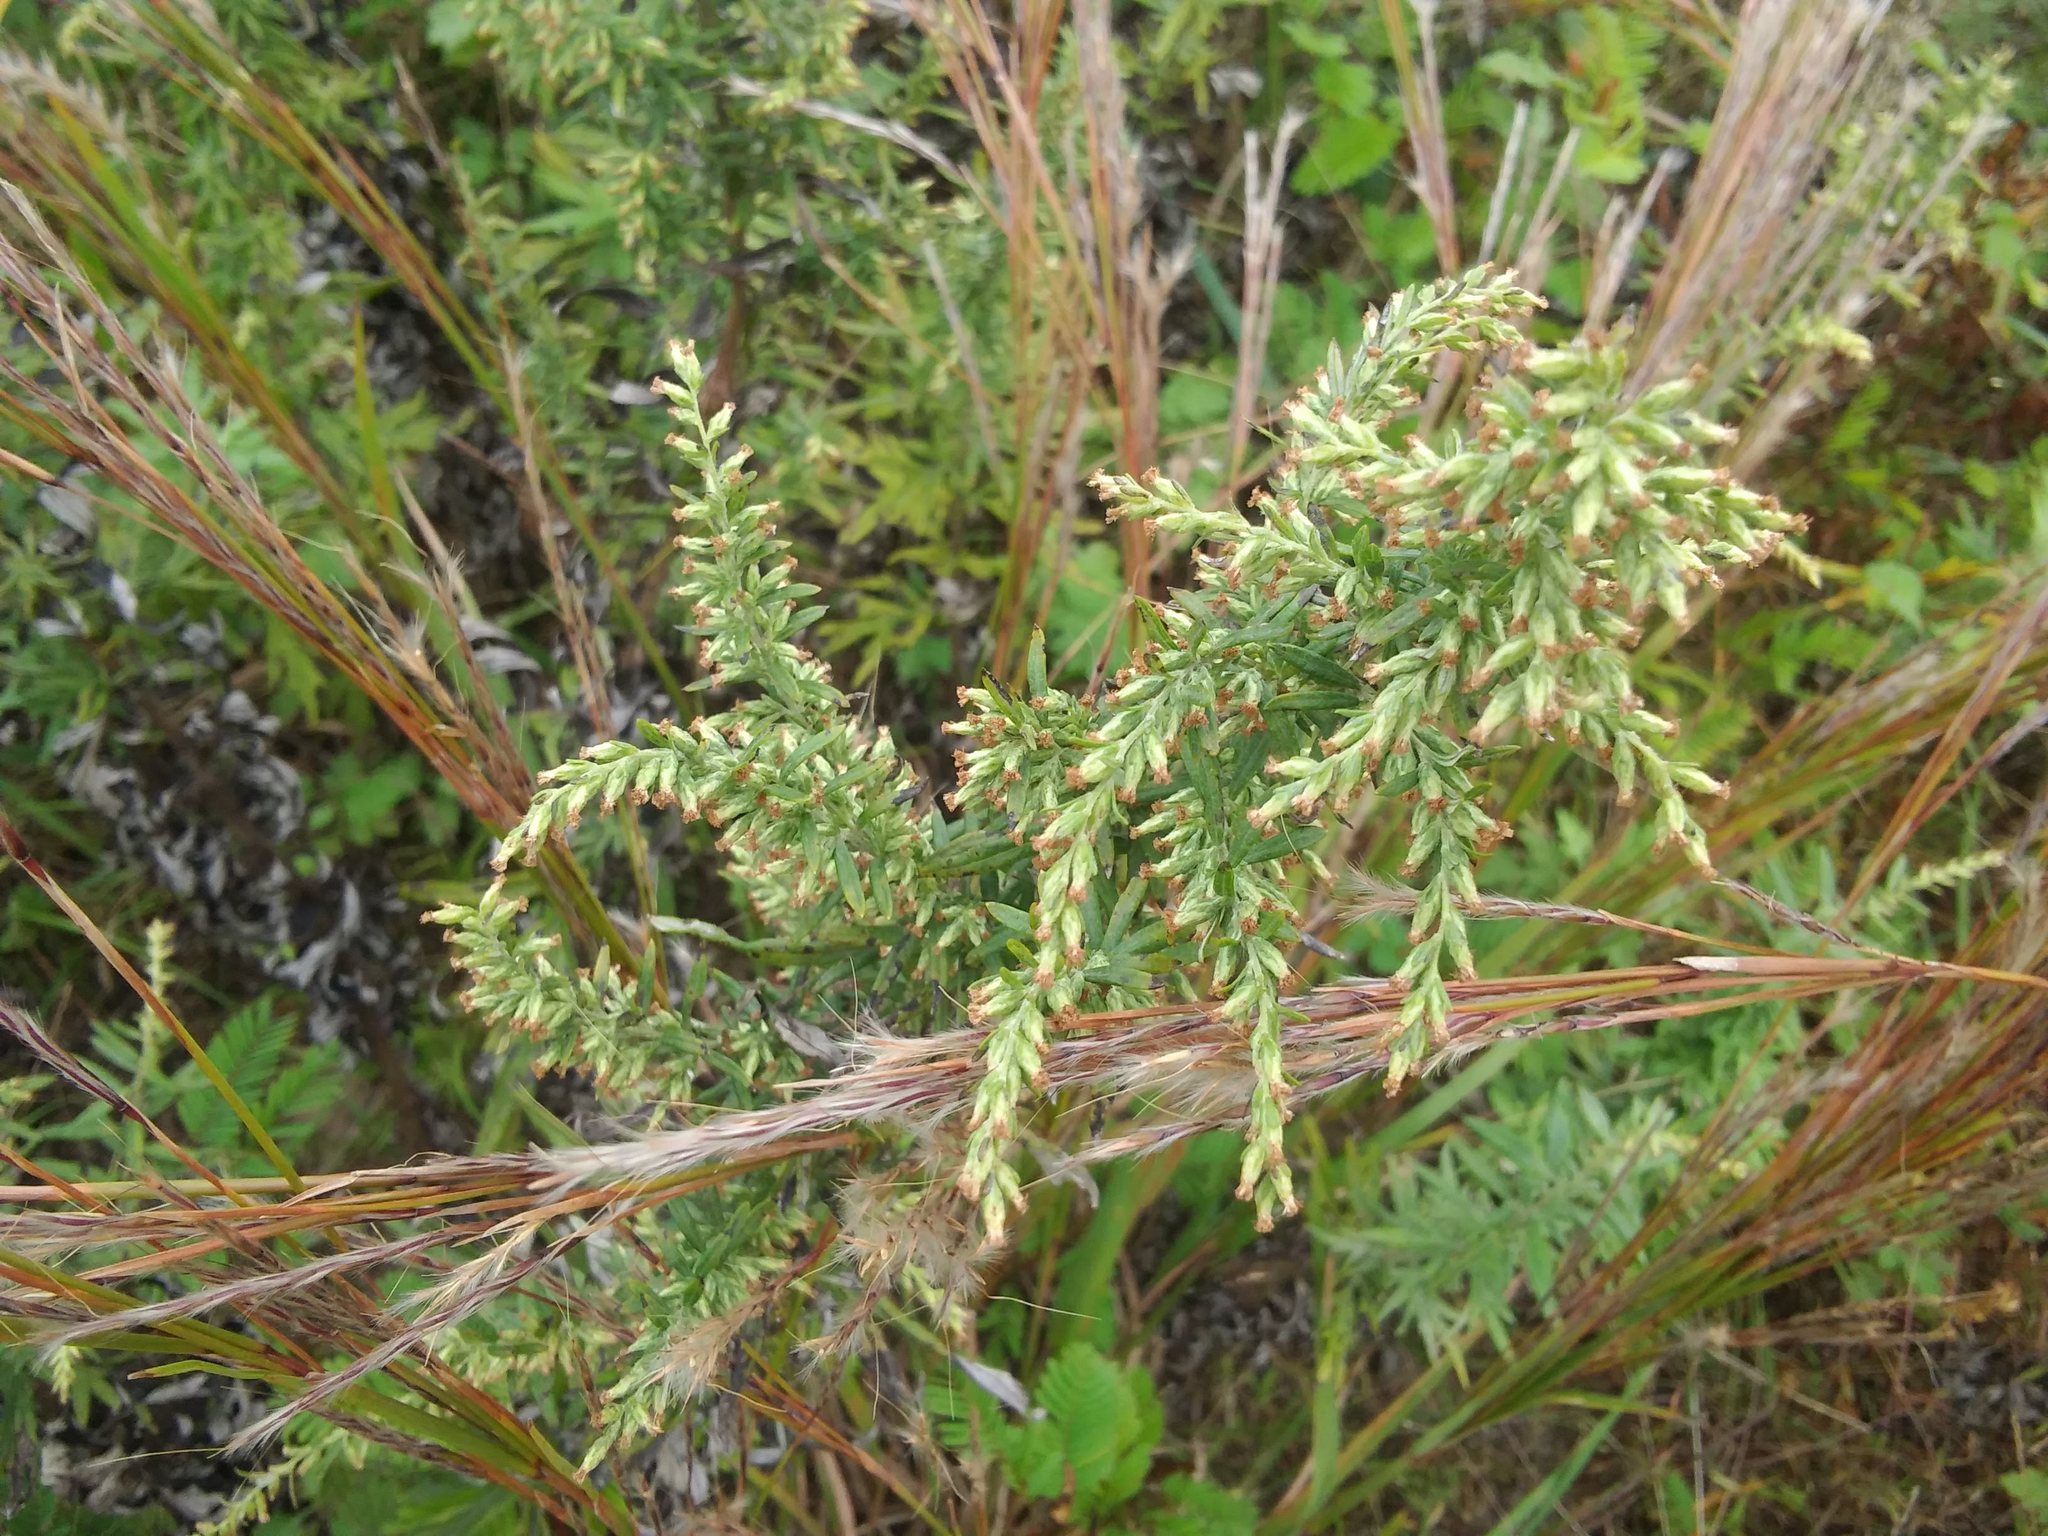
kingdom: Plantae
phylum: Tracheophyta
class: Magnoliopsida
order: Asterales
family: Asteraceae
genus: Artemisia
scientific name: Artemisia vulgaris
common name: Mugwort
